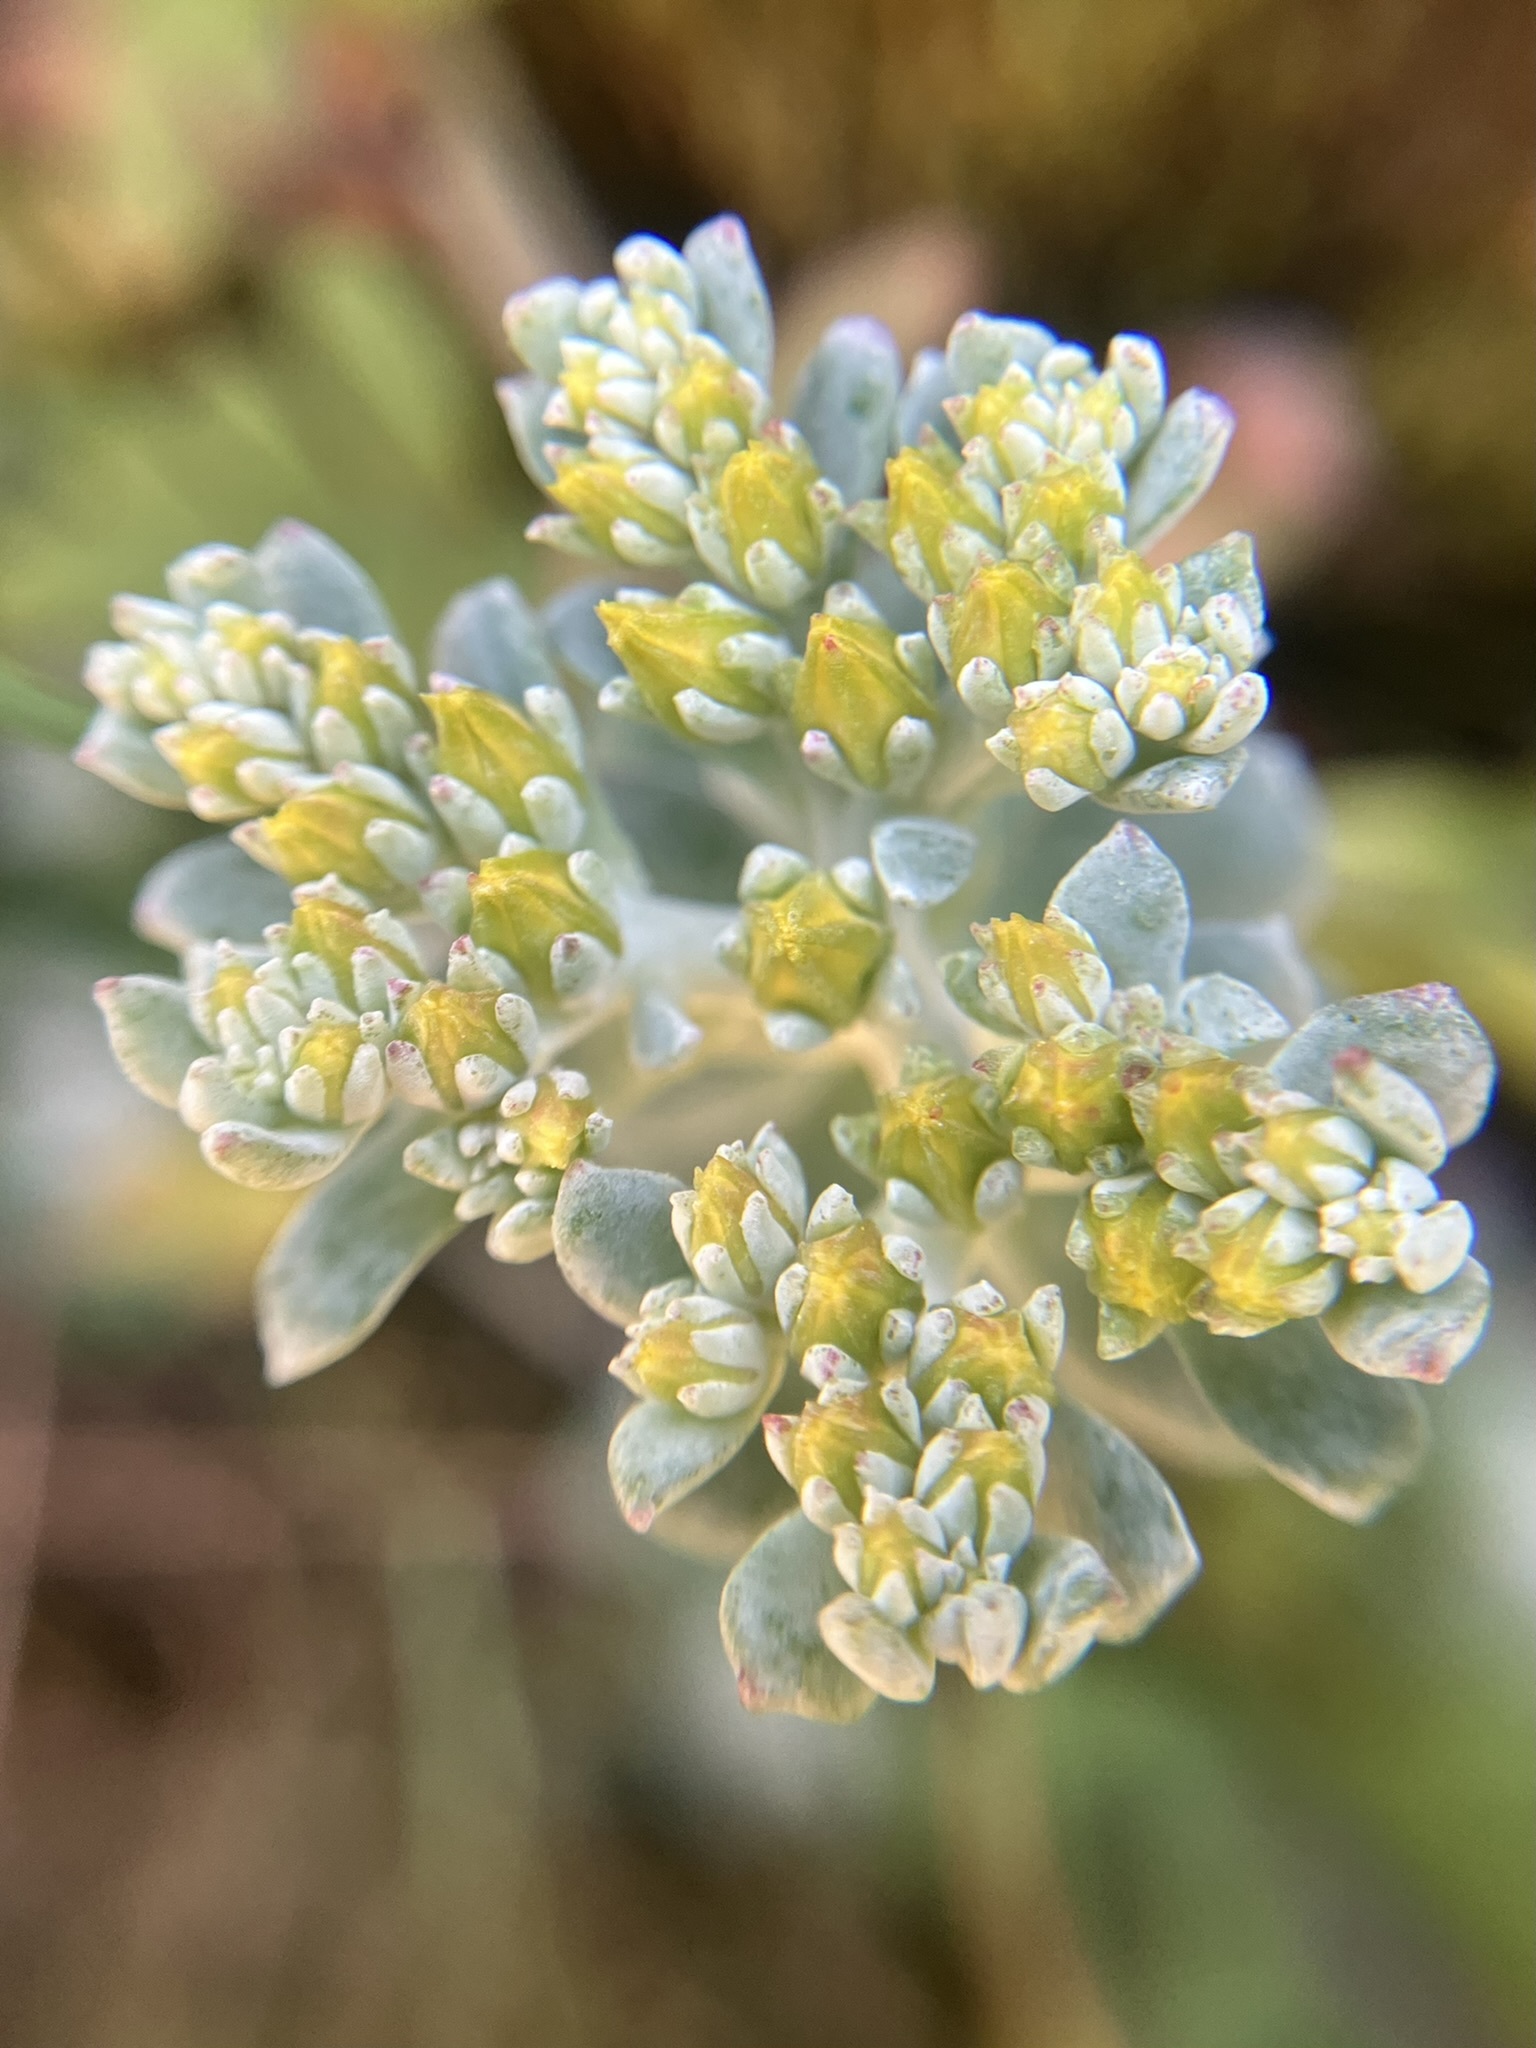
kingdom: Plantae
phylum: Tracheophyta
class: Magnoliopsida
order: Saxifragales
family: Crassulaceae
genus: Sedum
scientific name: Sedum spathulifolium
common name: Colorado stonecrop
